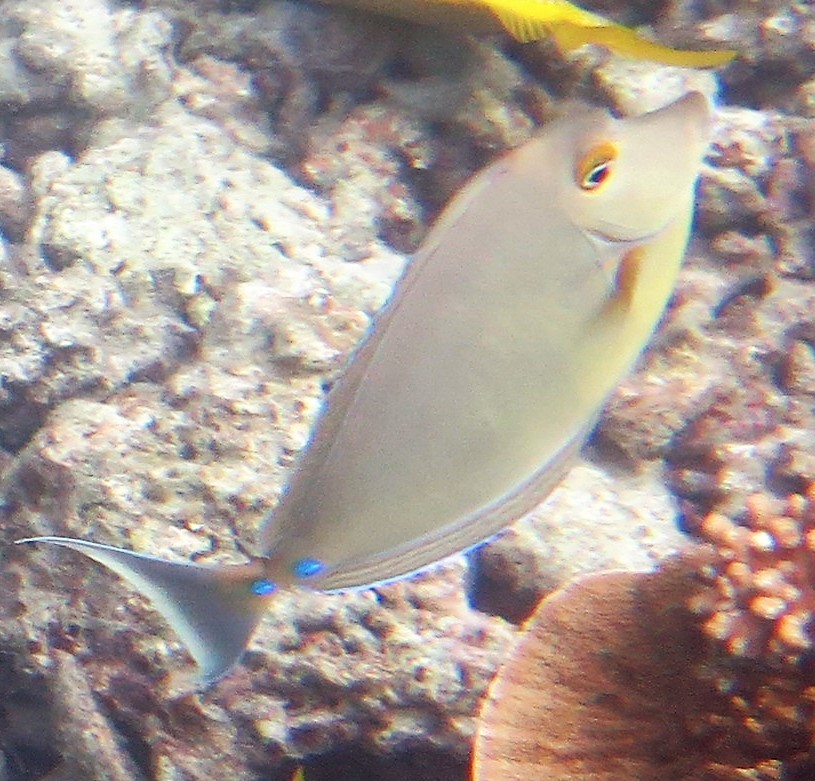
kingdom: Animalia
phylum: Chordata
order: Perciformes
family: Acanthuridae
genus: Naso
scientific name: Naso unicornis
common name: Bluespine unicornfish
